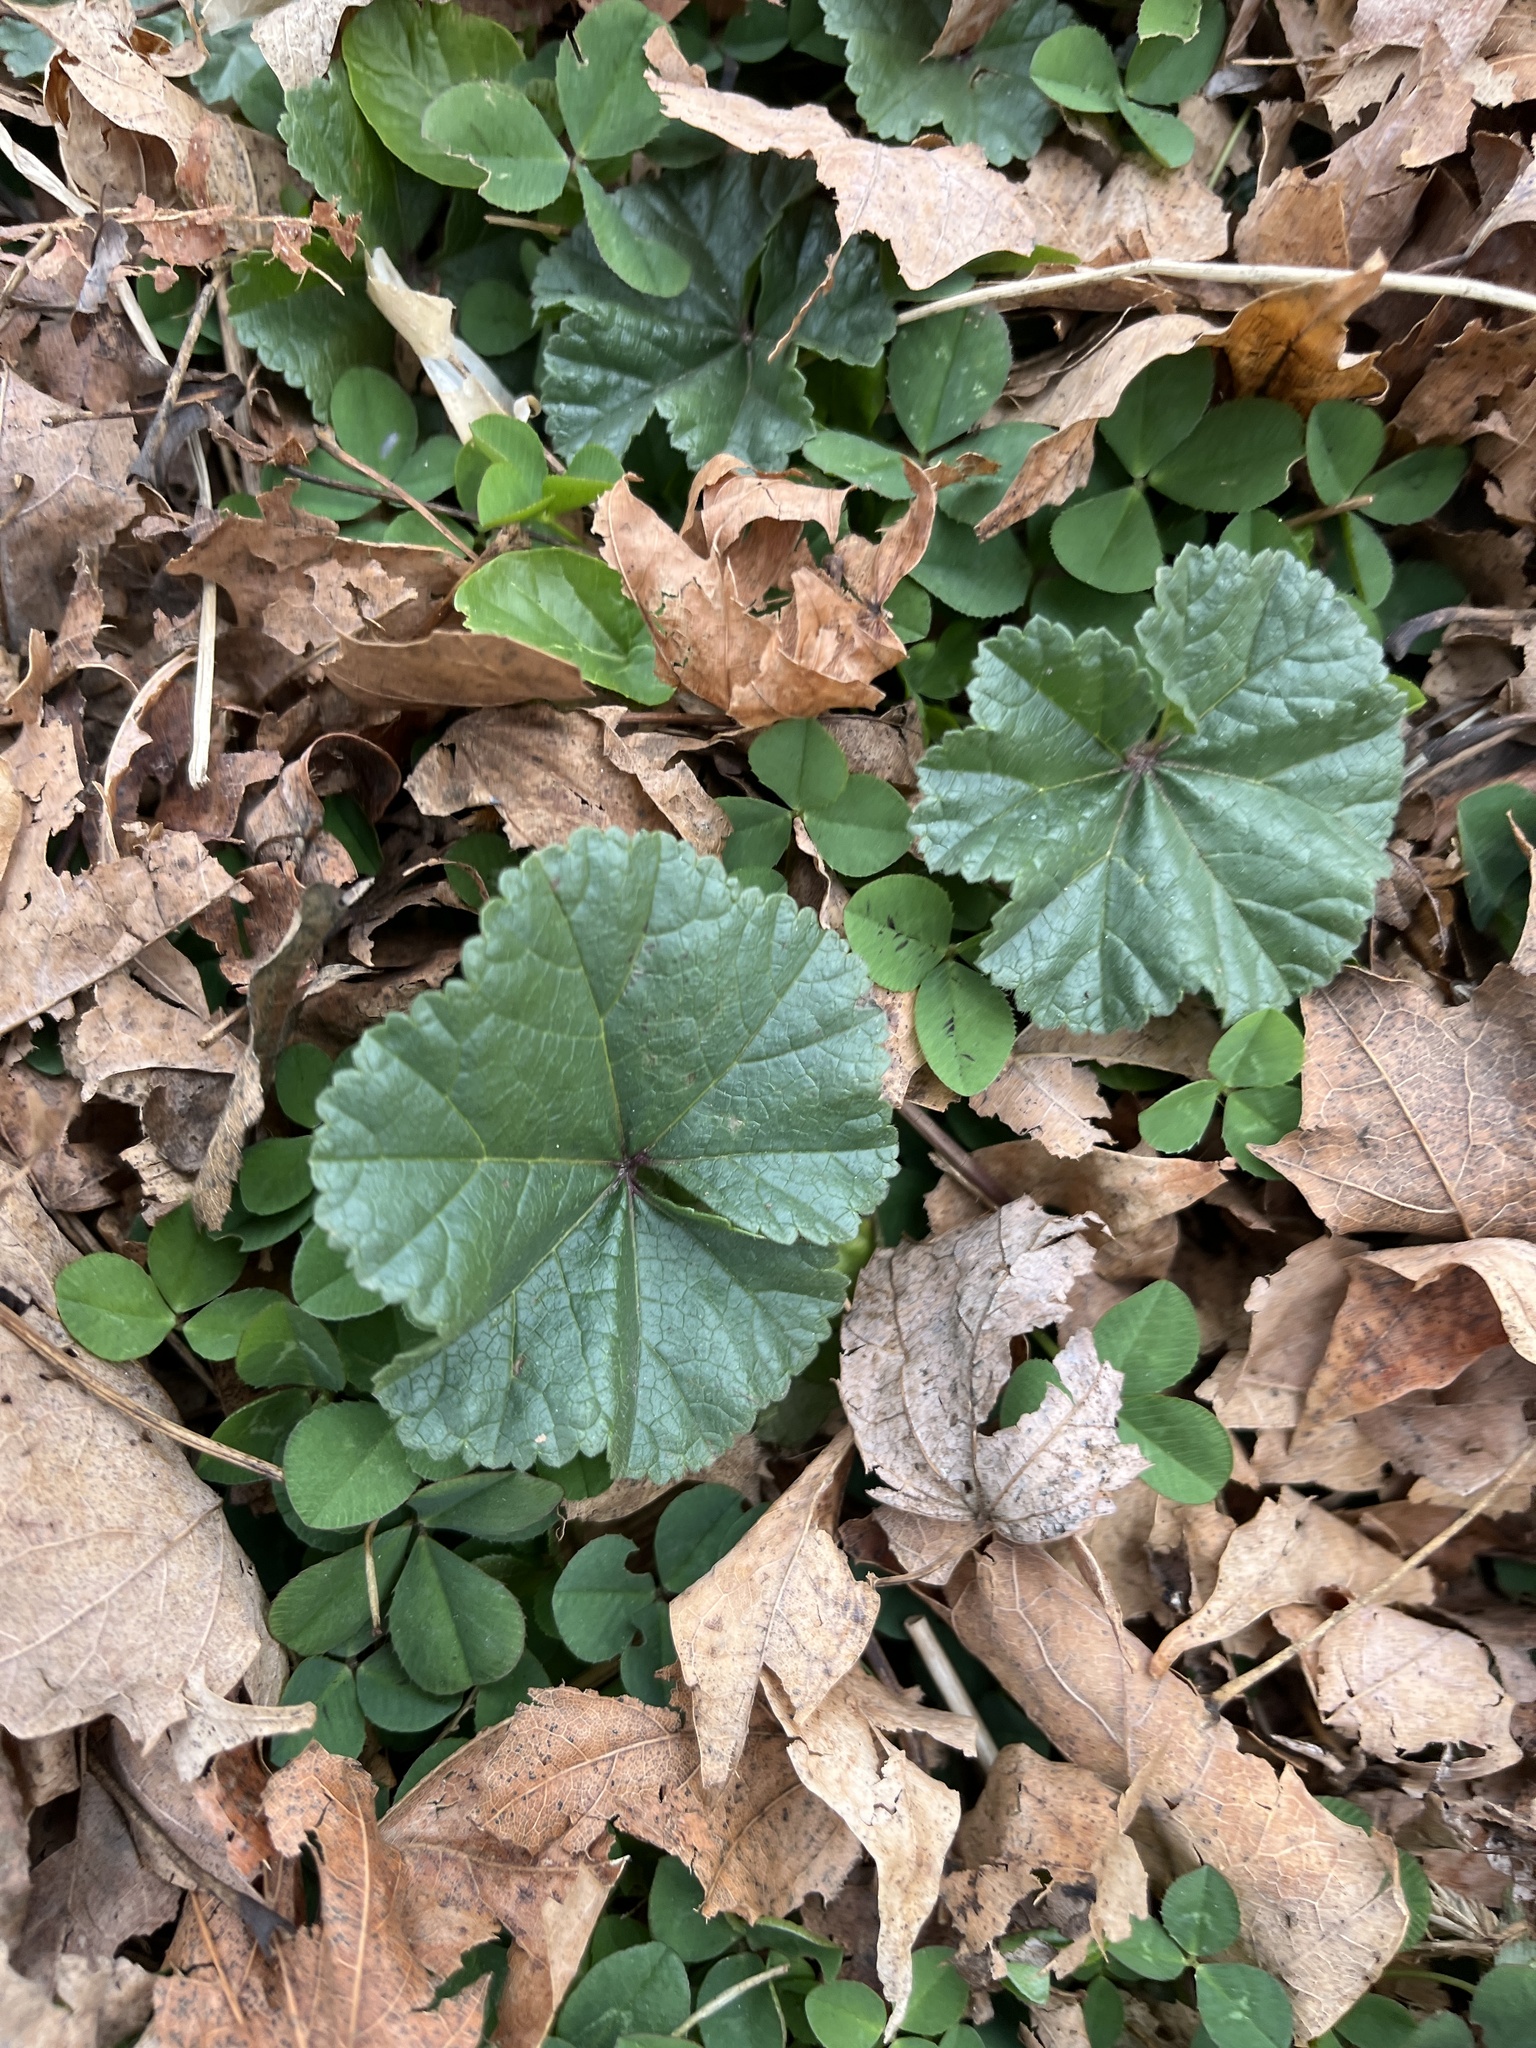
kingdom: Plantae
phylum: Tracheophyta
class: Magnoliopsida
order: Malvales
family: Malvaceae
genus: Malva
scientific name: Malva
